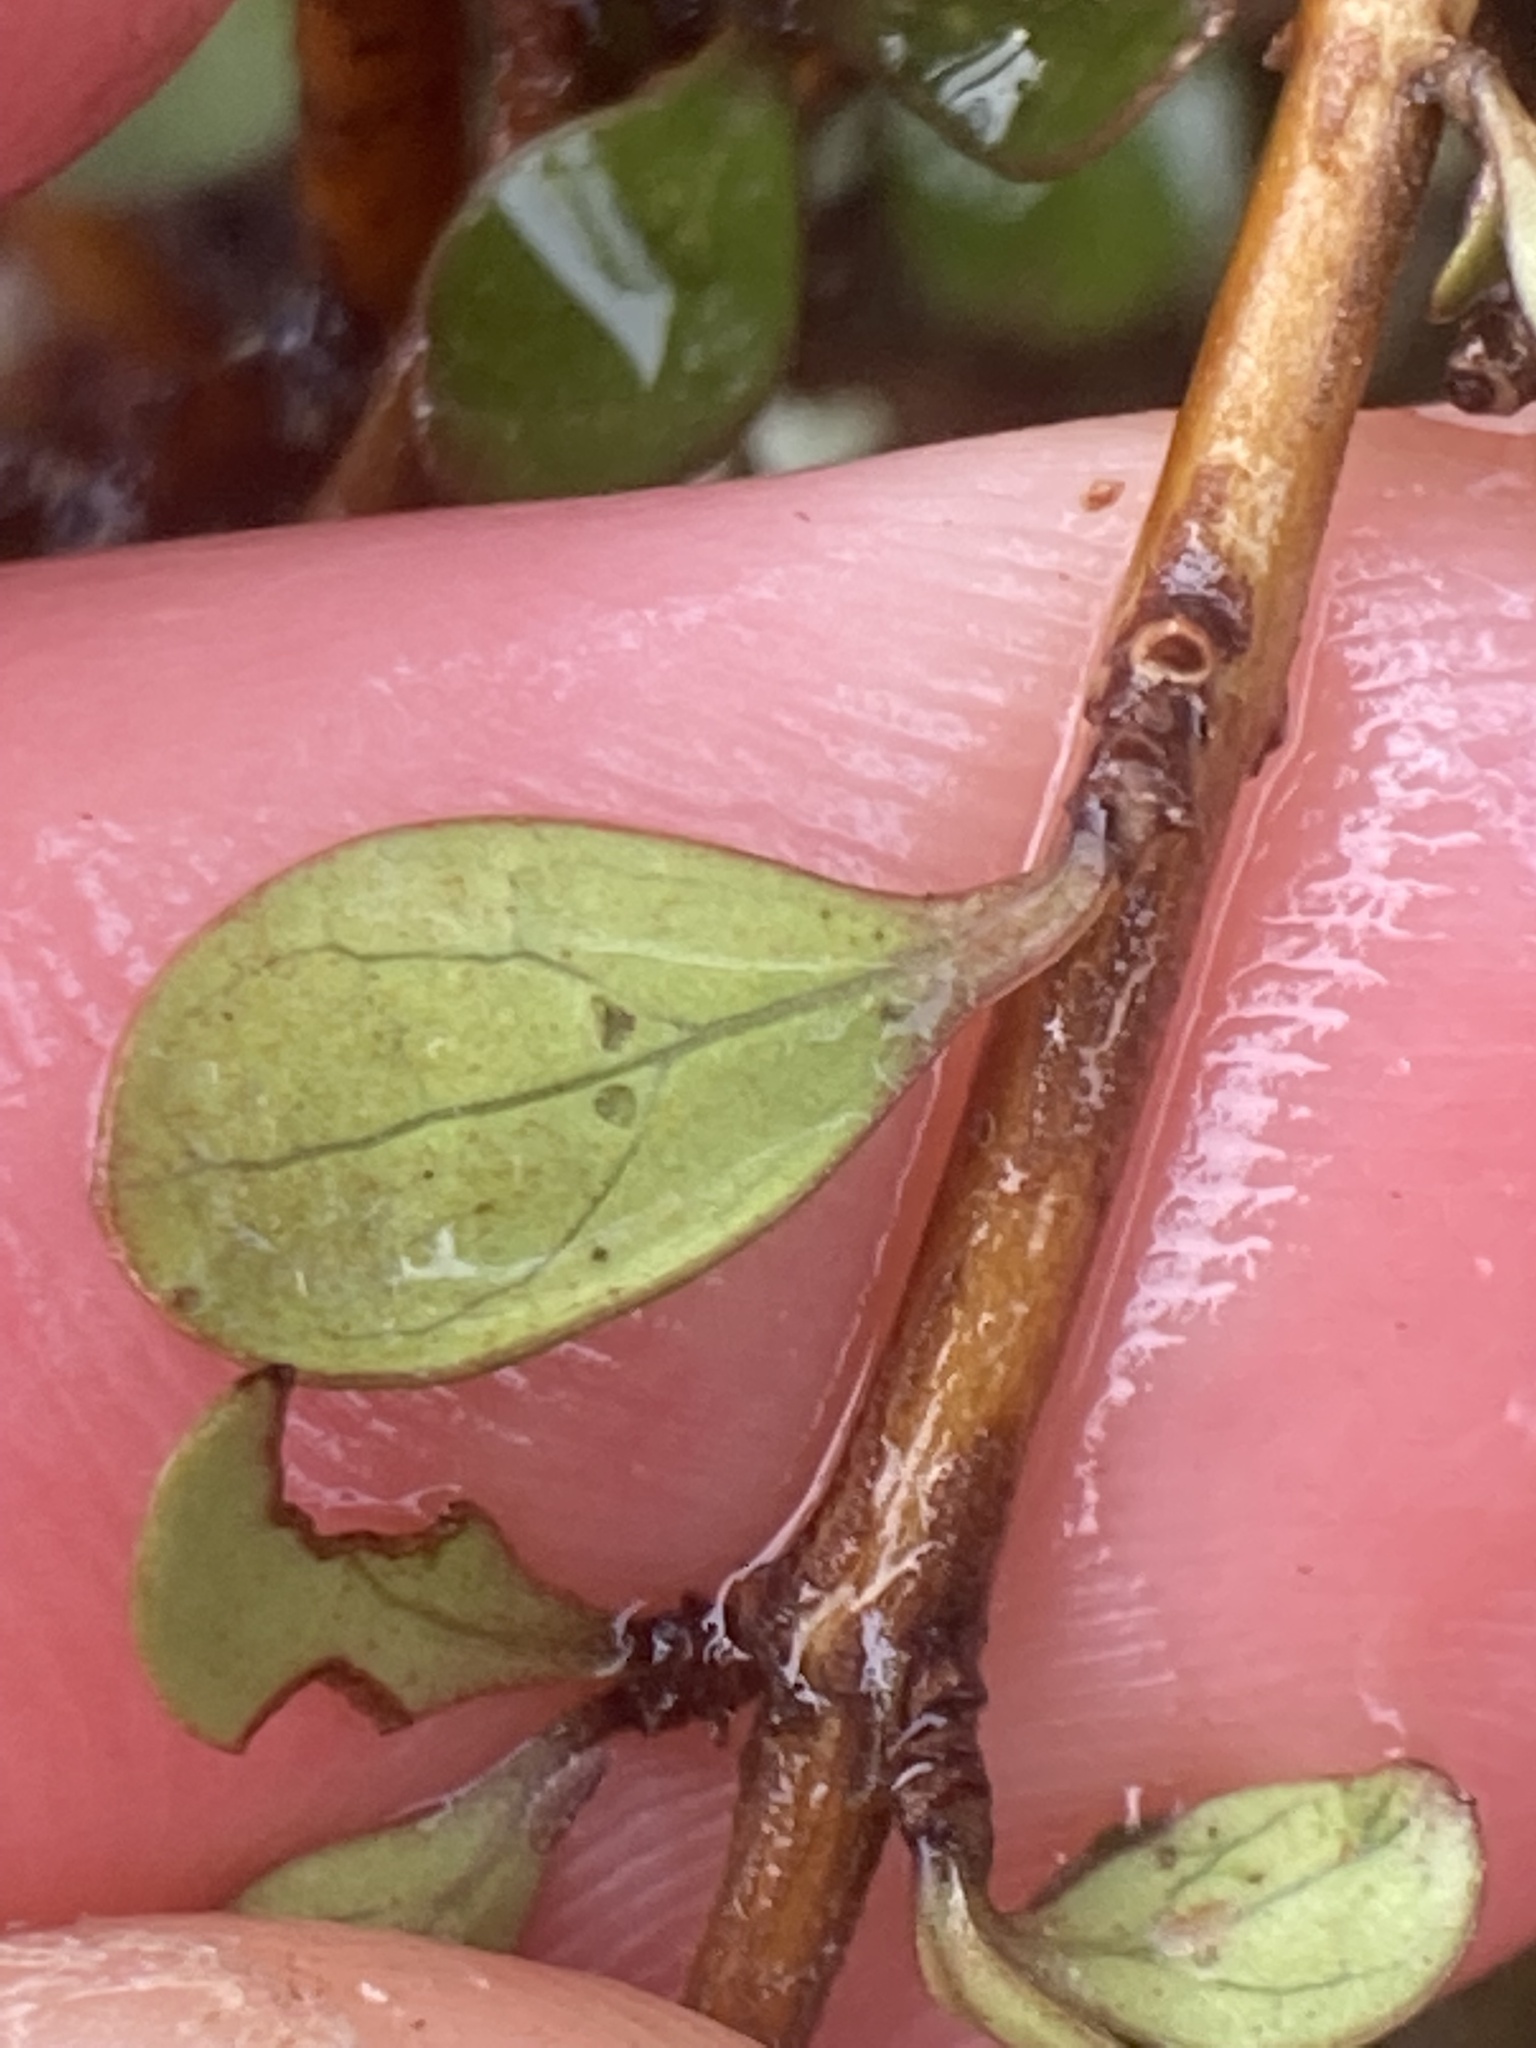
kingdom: Plantae
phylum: Tracheophyta
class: Magnoliopsida
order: Gentianales
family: Rubiaceae
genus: Coprosma
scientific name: Coprosma rigida
